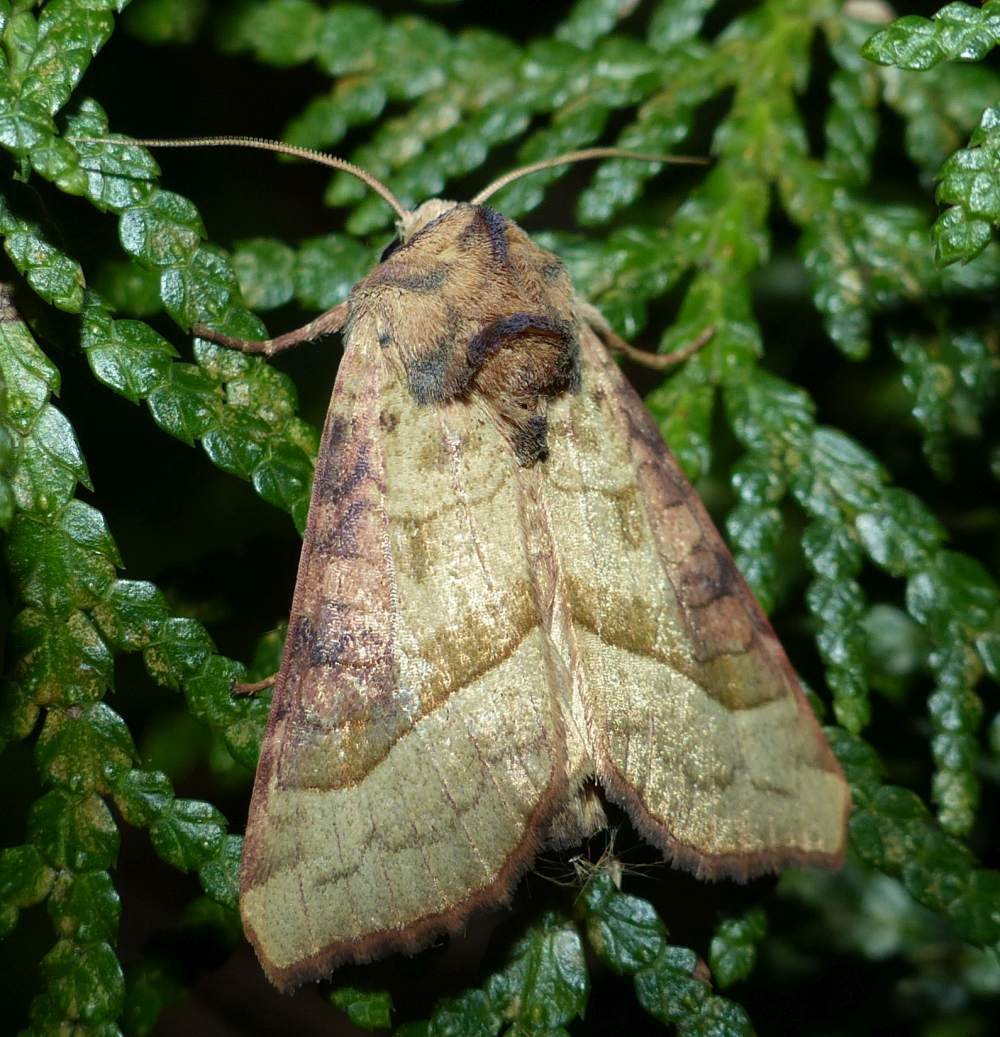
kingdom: Animalia
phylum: Arthropoda
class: Insecta
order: Lepidoptera
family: Noctuidae
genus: Hydraecia
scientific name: Hydraecia stramentosa
